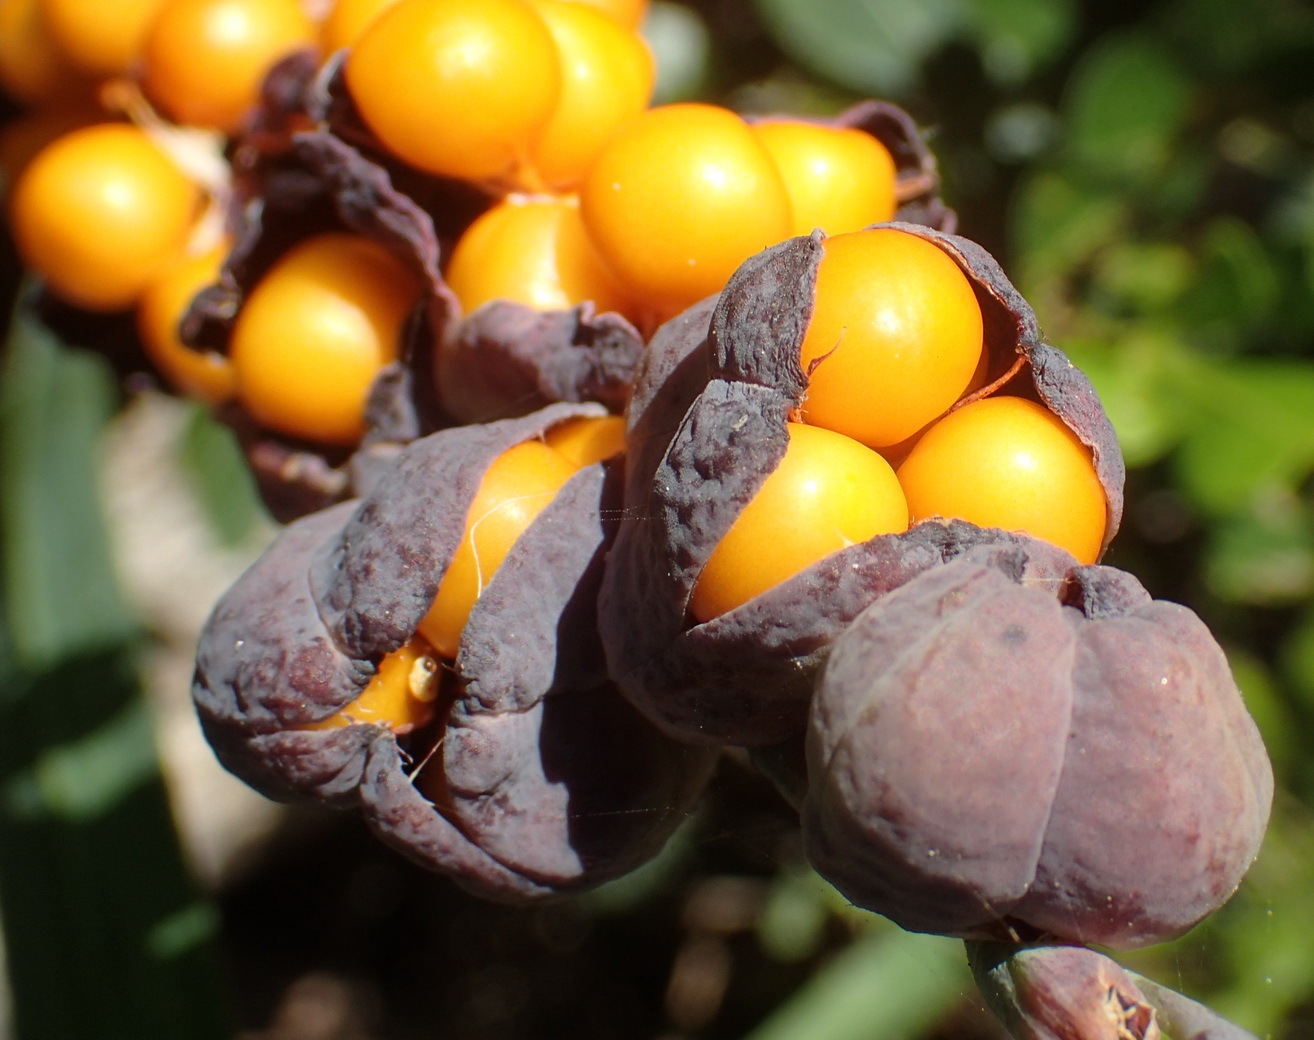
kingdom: Plantae
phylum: Tracheophyta
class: Liliopsida
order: Asparagales
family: Iridaceae
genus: Chasmanthe
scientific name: Chasmanthe aethiopica
